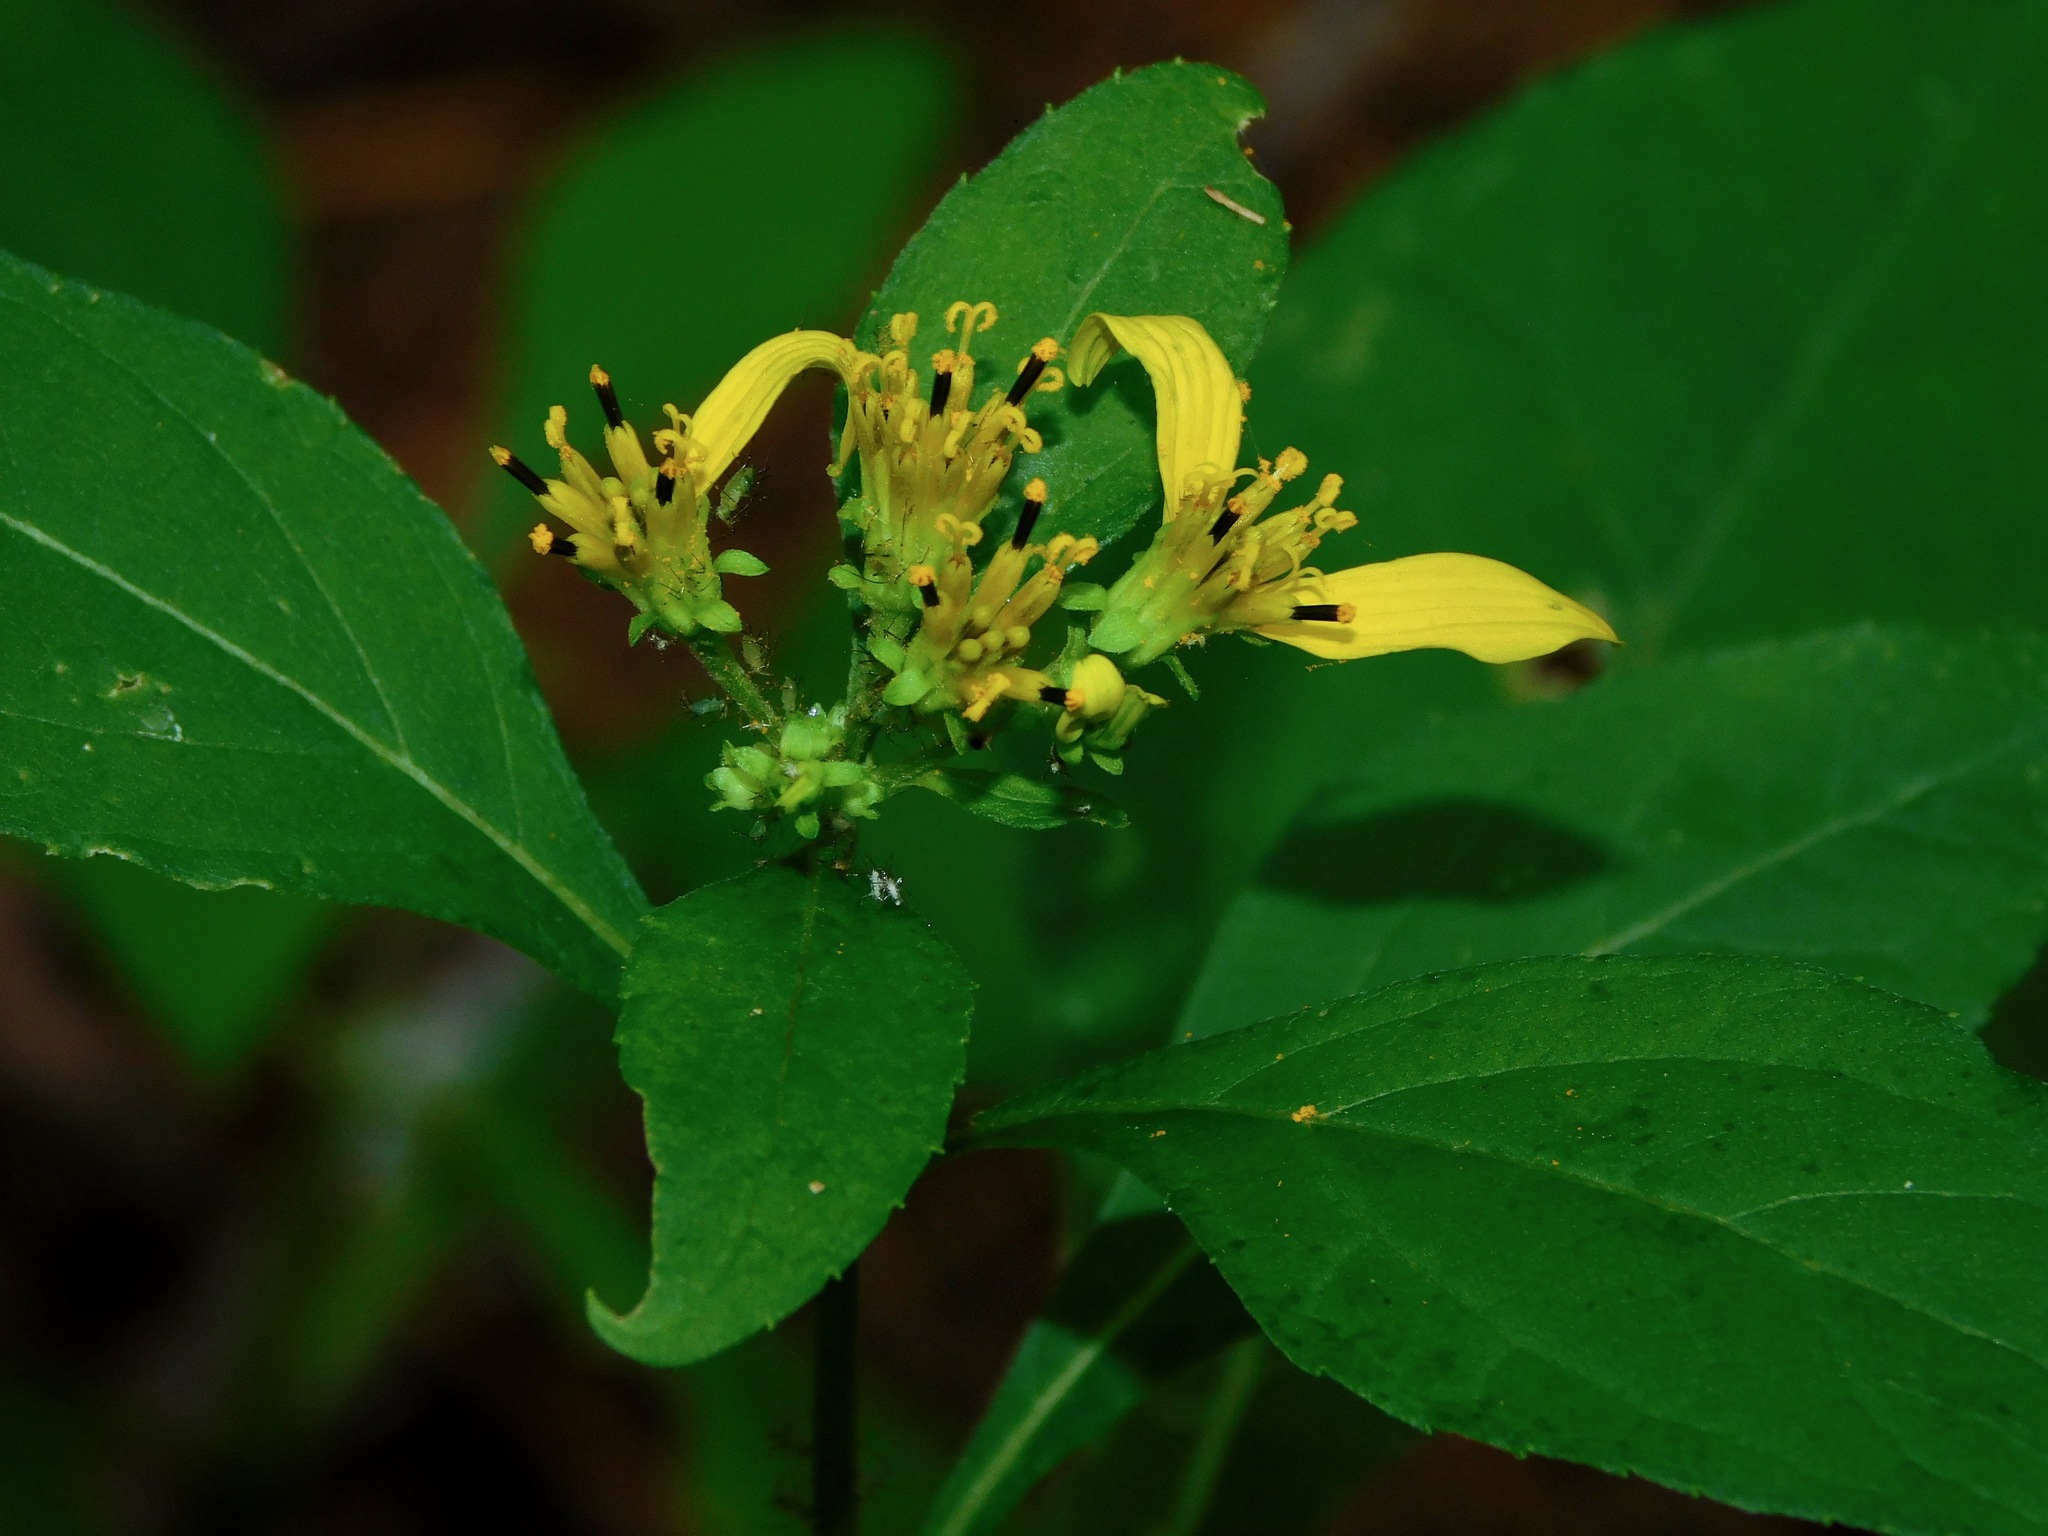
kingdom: Plantae
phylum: Tracheophyta
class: Magnoliopsida
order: Asterales
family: Asteraceae
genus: Verbesina
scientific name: Verbesina occidentalis
